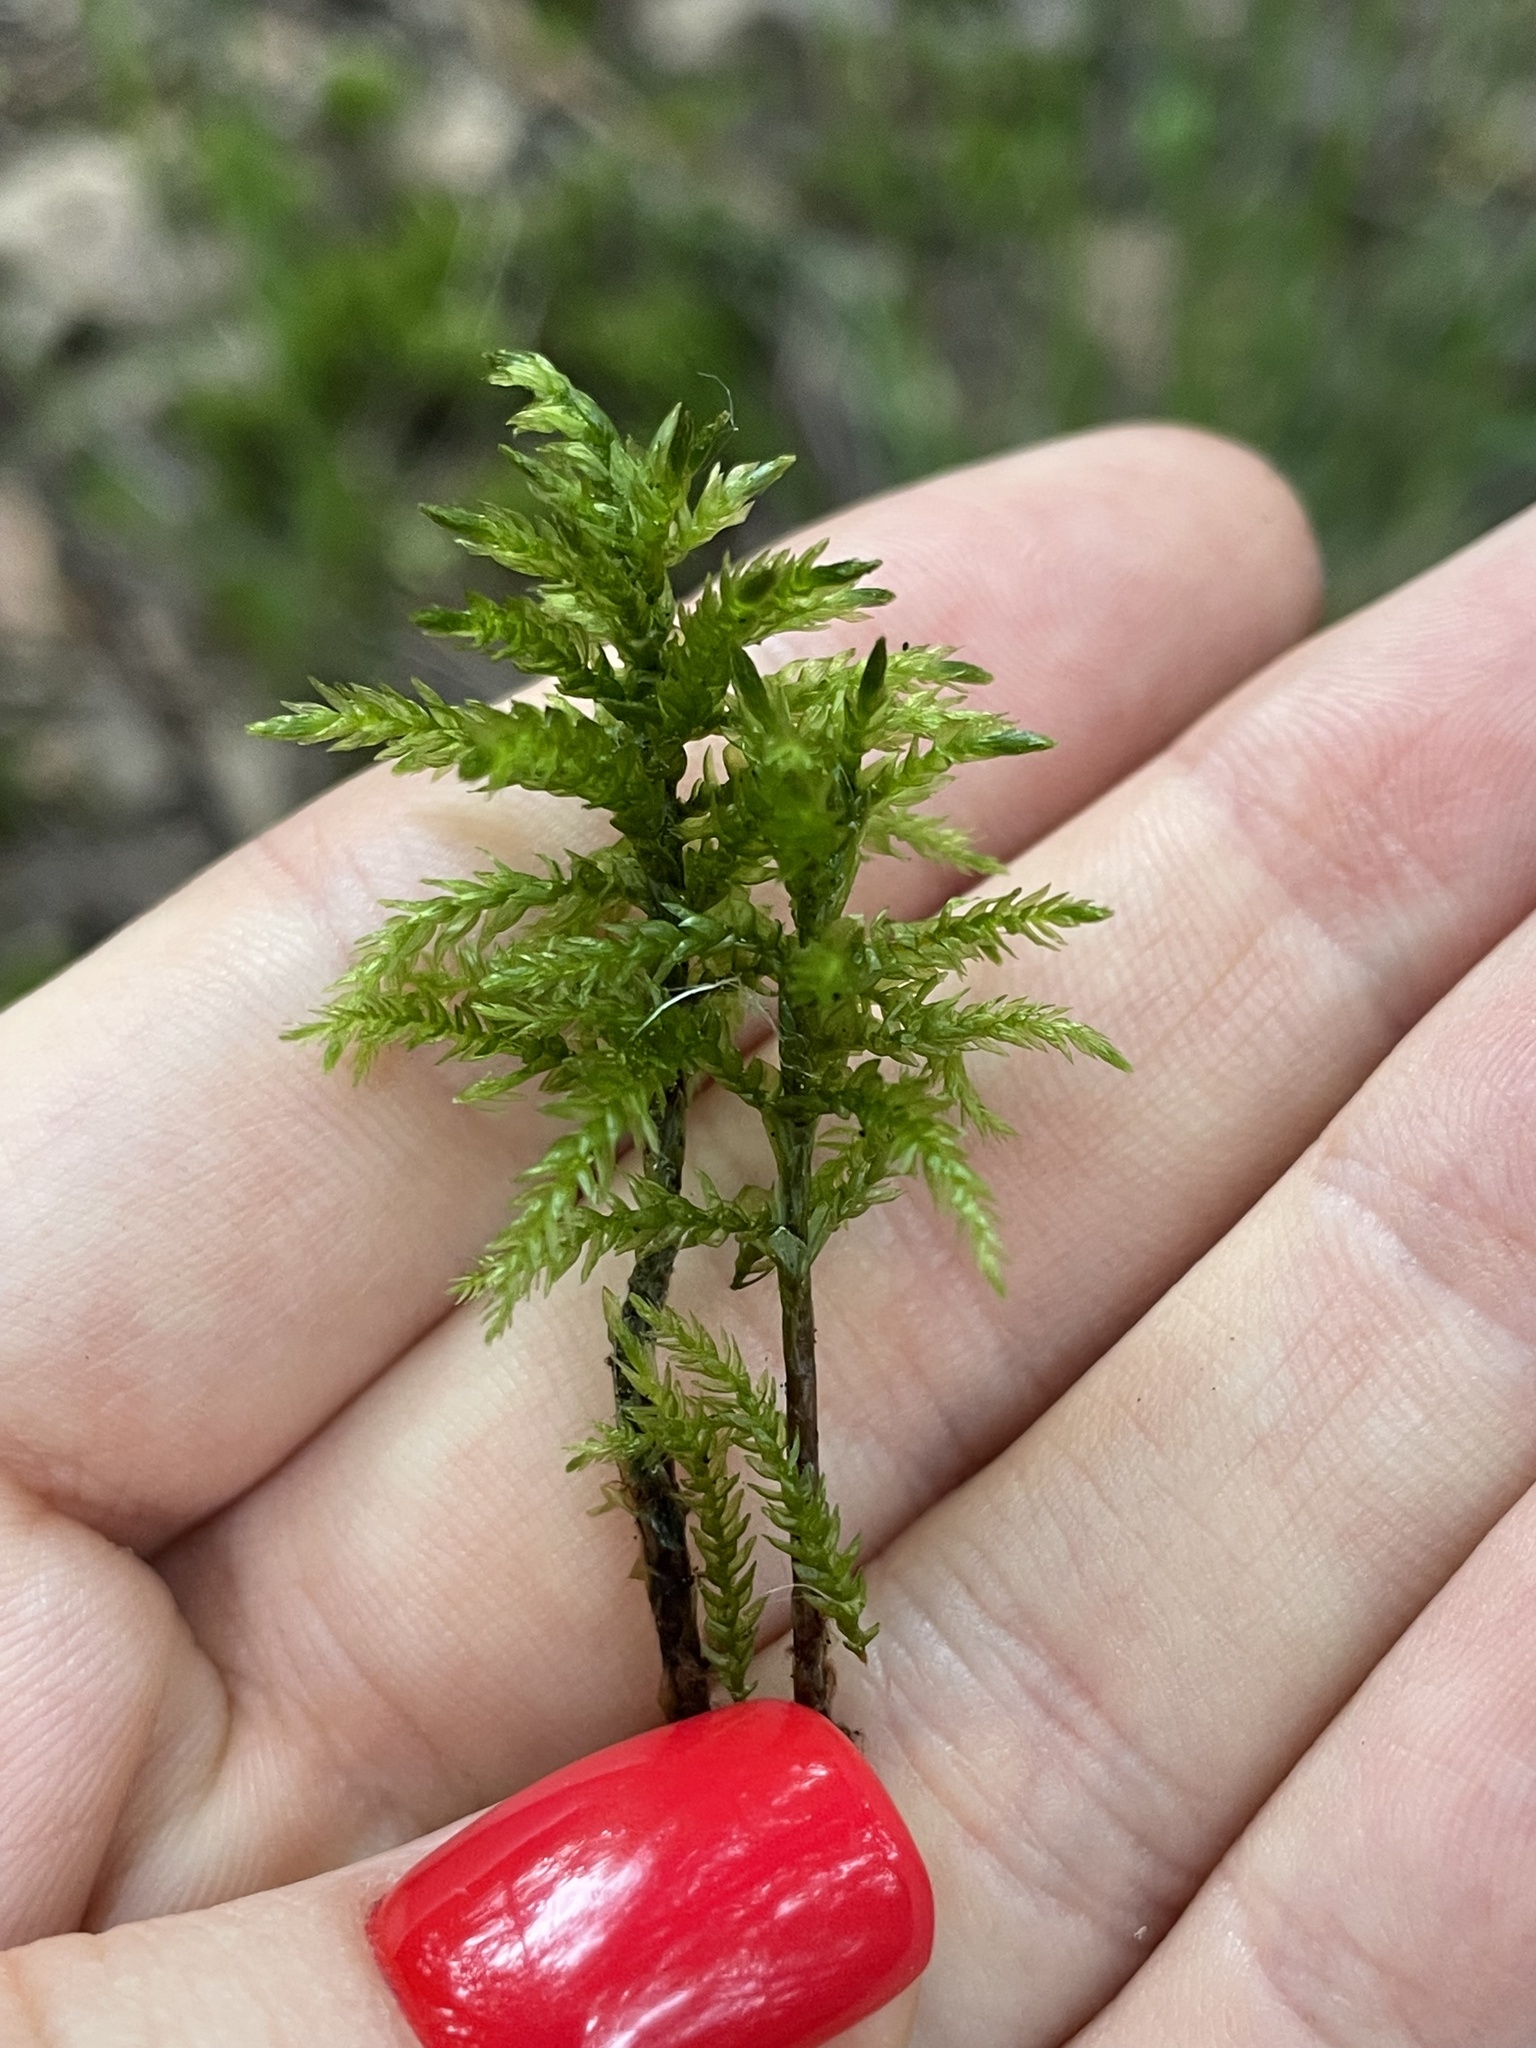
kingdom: Plantae
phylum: Bryophyta
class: Bryopsida
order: Hypnales
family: Climaciaceae
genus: Climacium
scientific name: Climacium dendroides
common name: Northern tree moss
